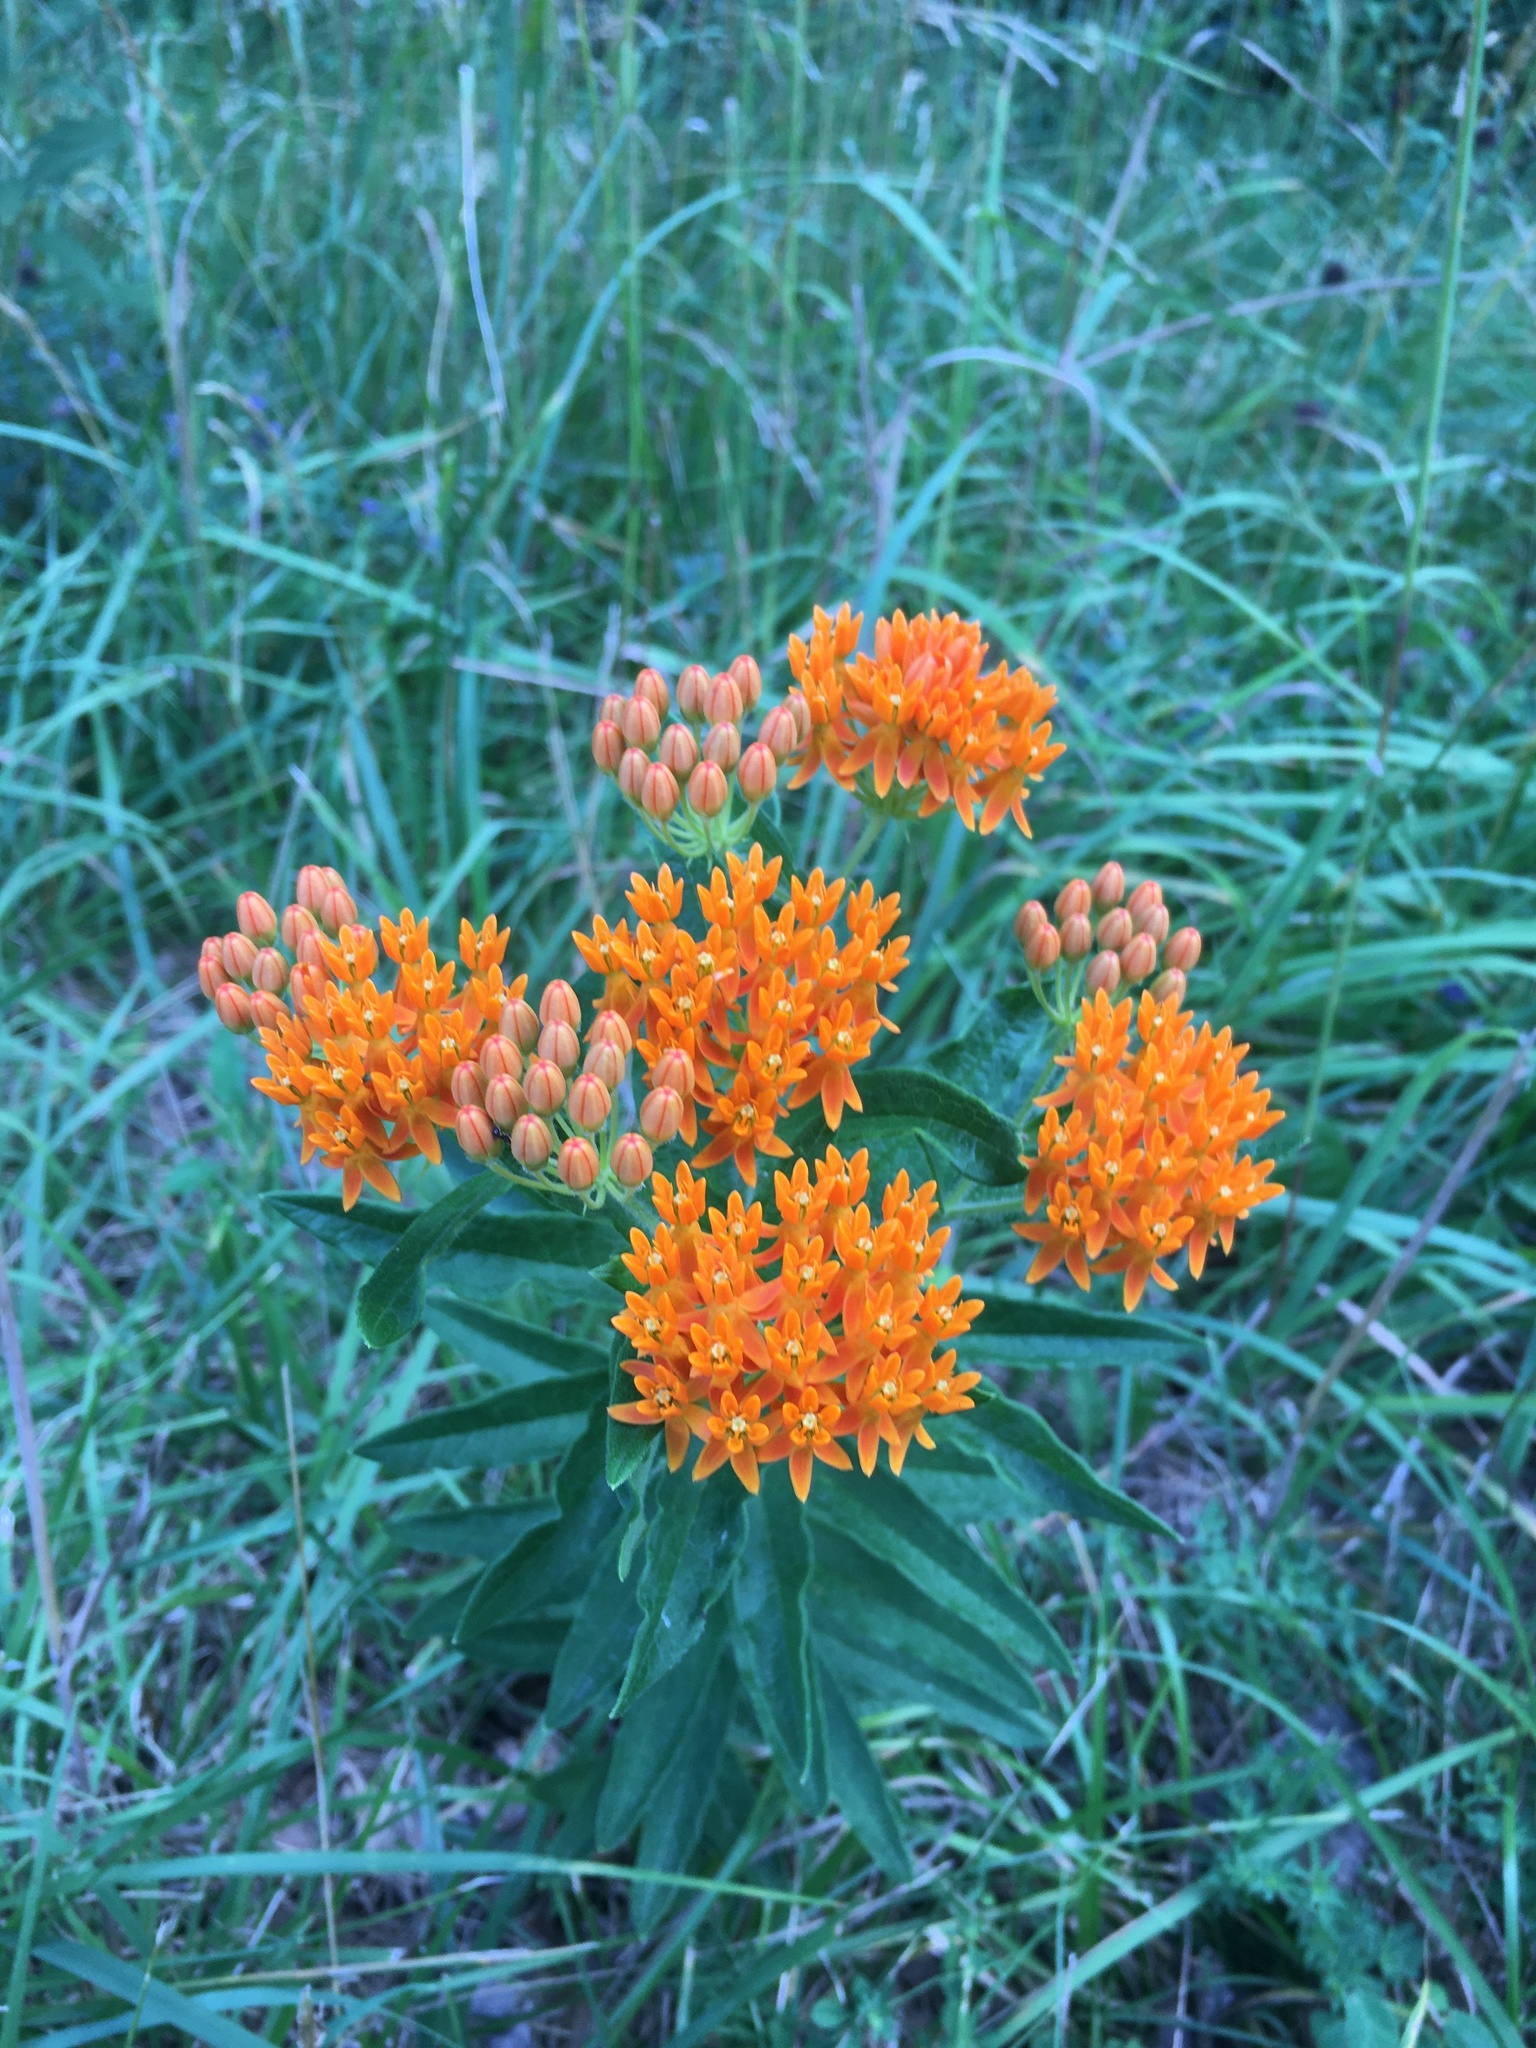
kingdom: Plantae
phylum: Tracheophyta
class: Magnoliopsida
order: Gentianales
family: Apocynaceae
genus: Asclepias
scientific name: Asclepias tuberosa
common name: Butterfly milkweed
